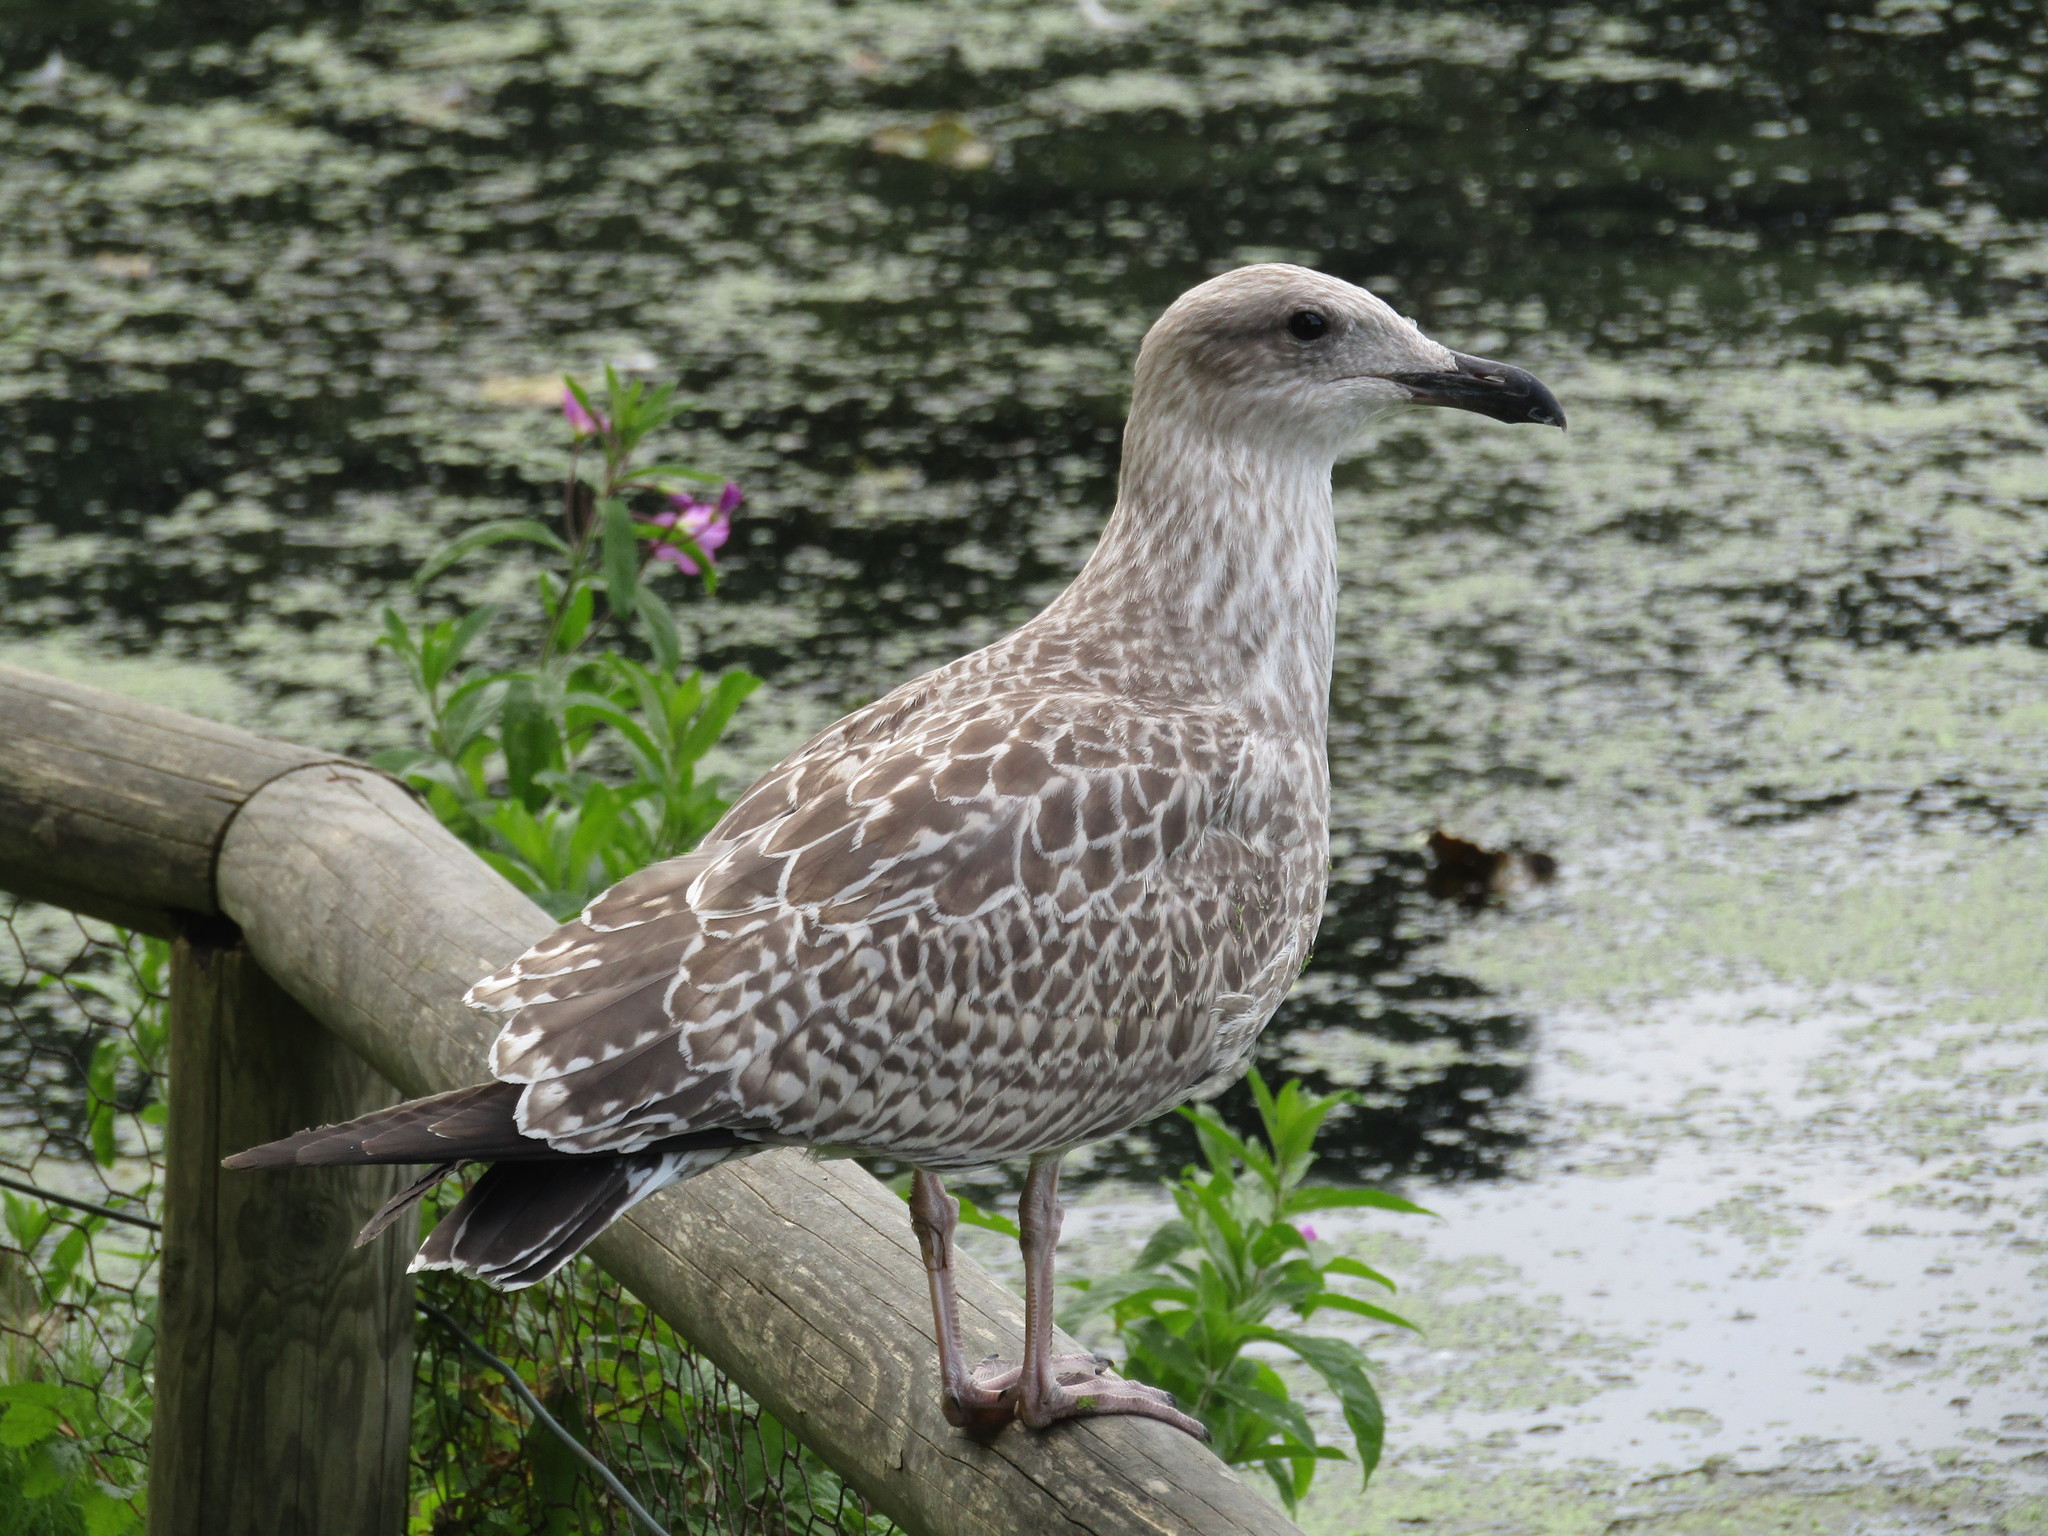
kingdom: Animalia
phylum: Chordata
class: Aves
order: Charadriiformes
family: Laridae
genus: Larus
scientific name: Larus argentatus
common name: Herring gull
